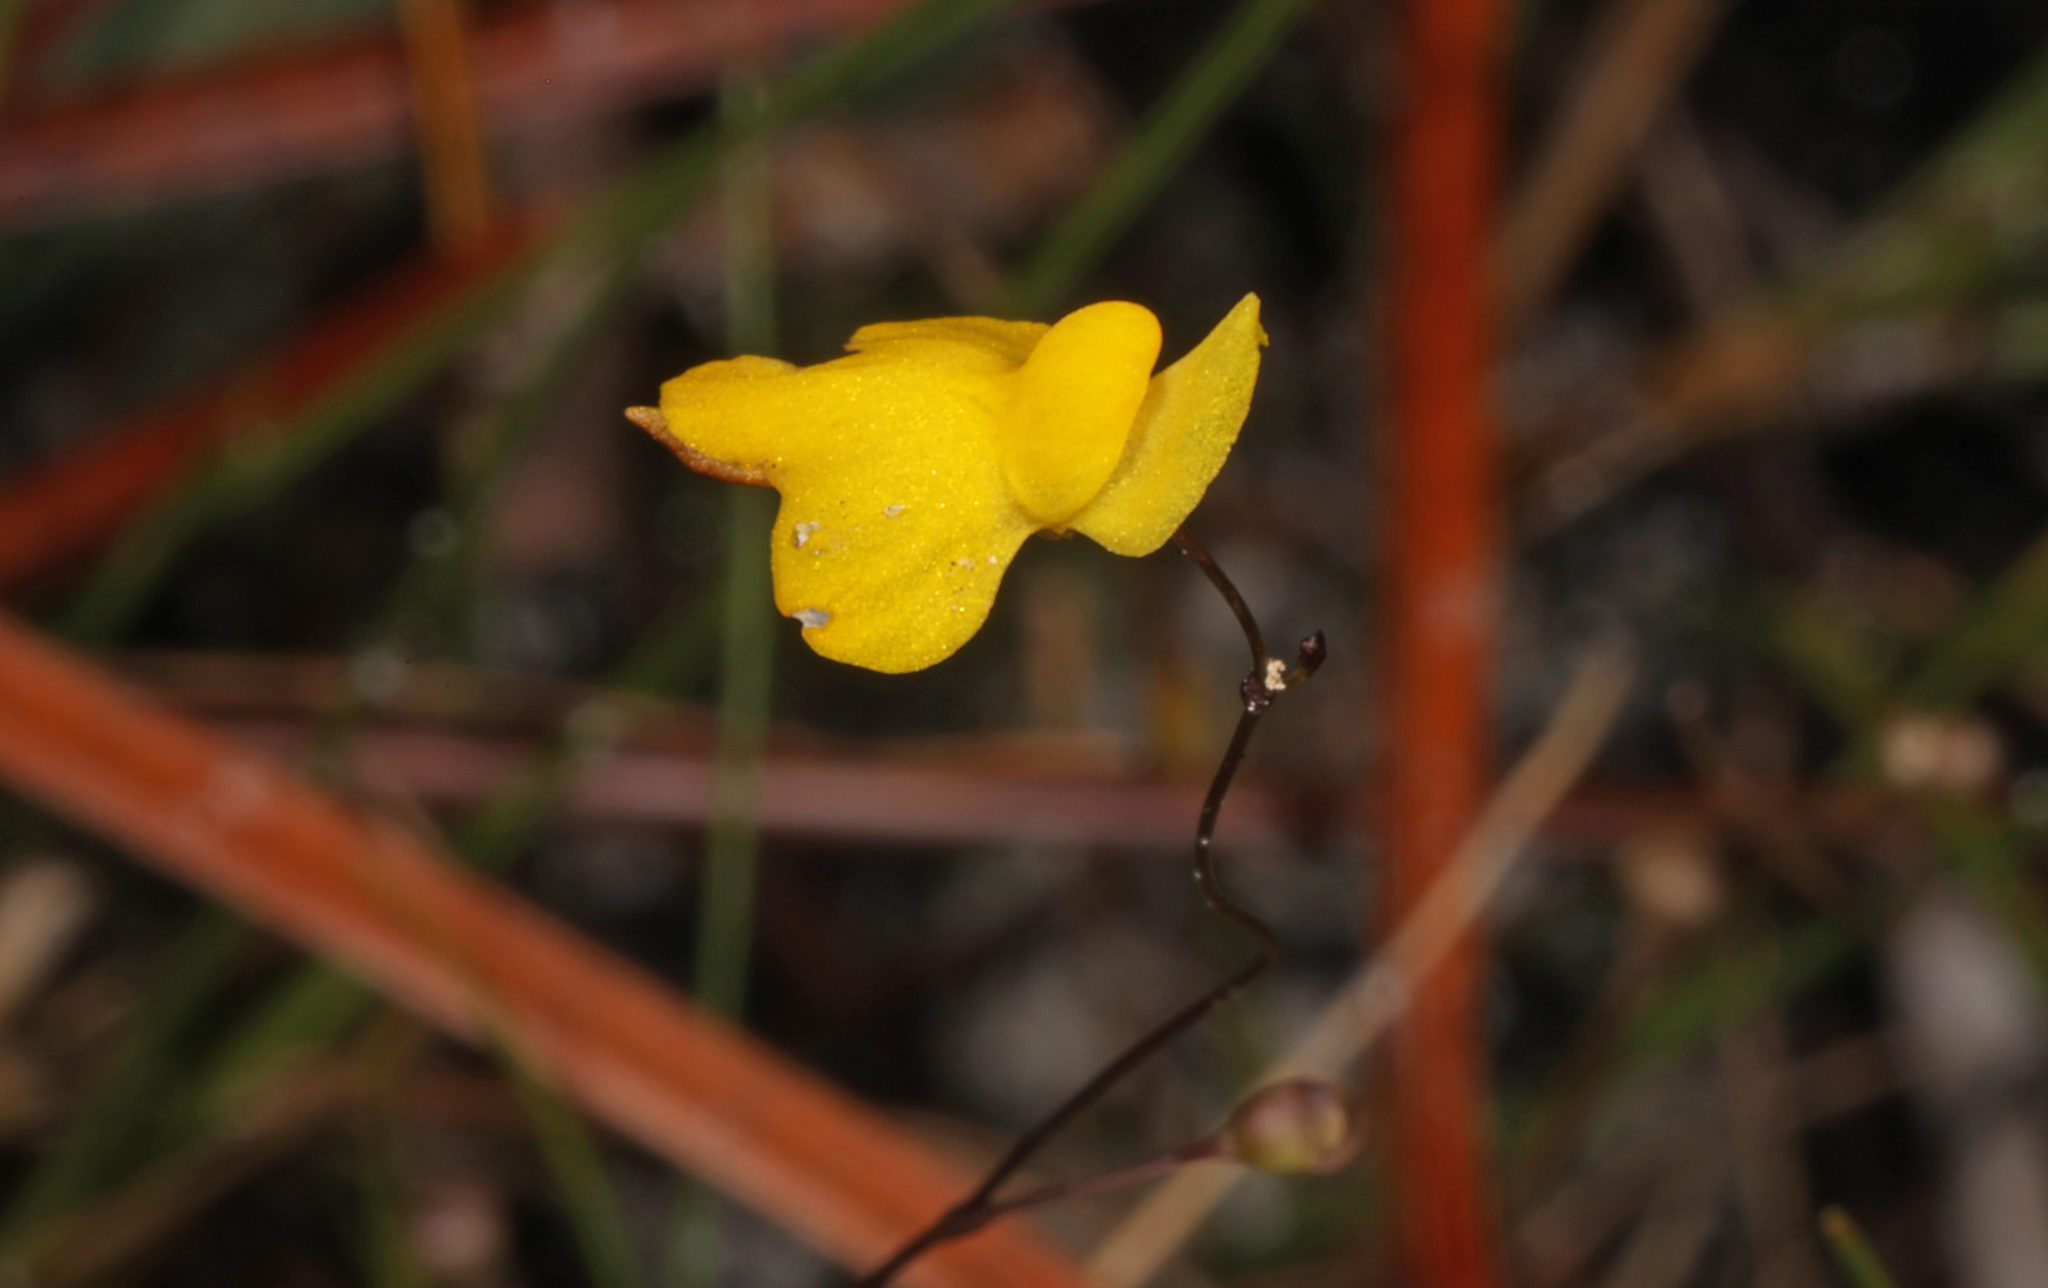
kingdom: Plantae
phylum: Tracheophyta
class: Magnoliopsida
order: Lamiales
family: Lentibulariaceae
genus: Utricularia
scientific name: Utricularia subulata
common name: Tiny bladderwort
